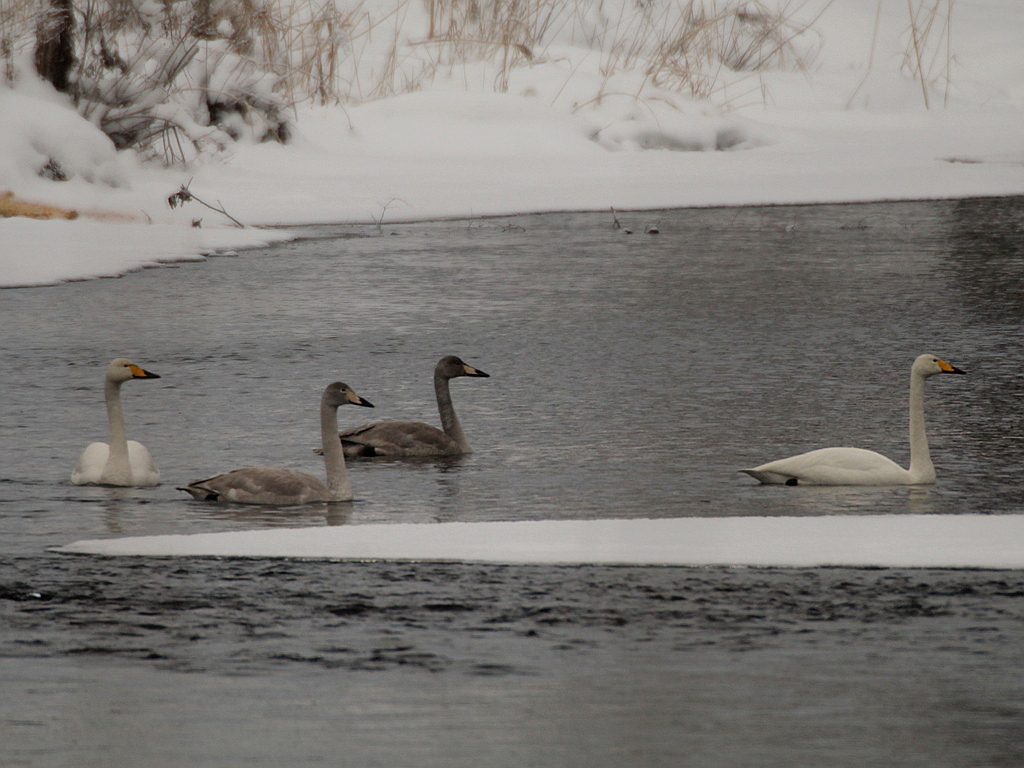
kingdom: Animalia
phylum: Chordata
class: Aves
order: Anseriformes
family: Anatidae
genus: Cygnus
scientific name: Cygnus cygnus
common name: Whooper swan
